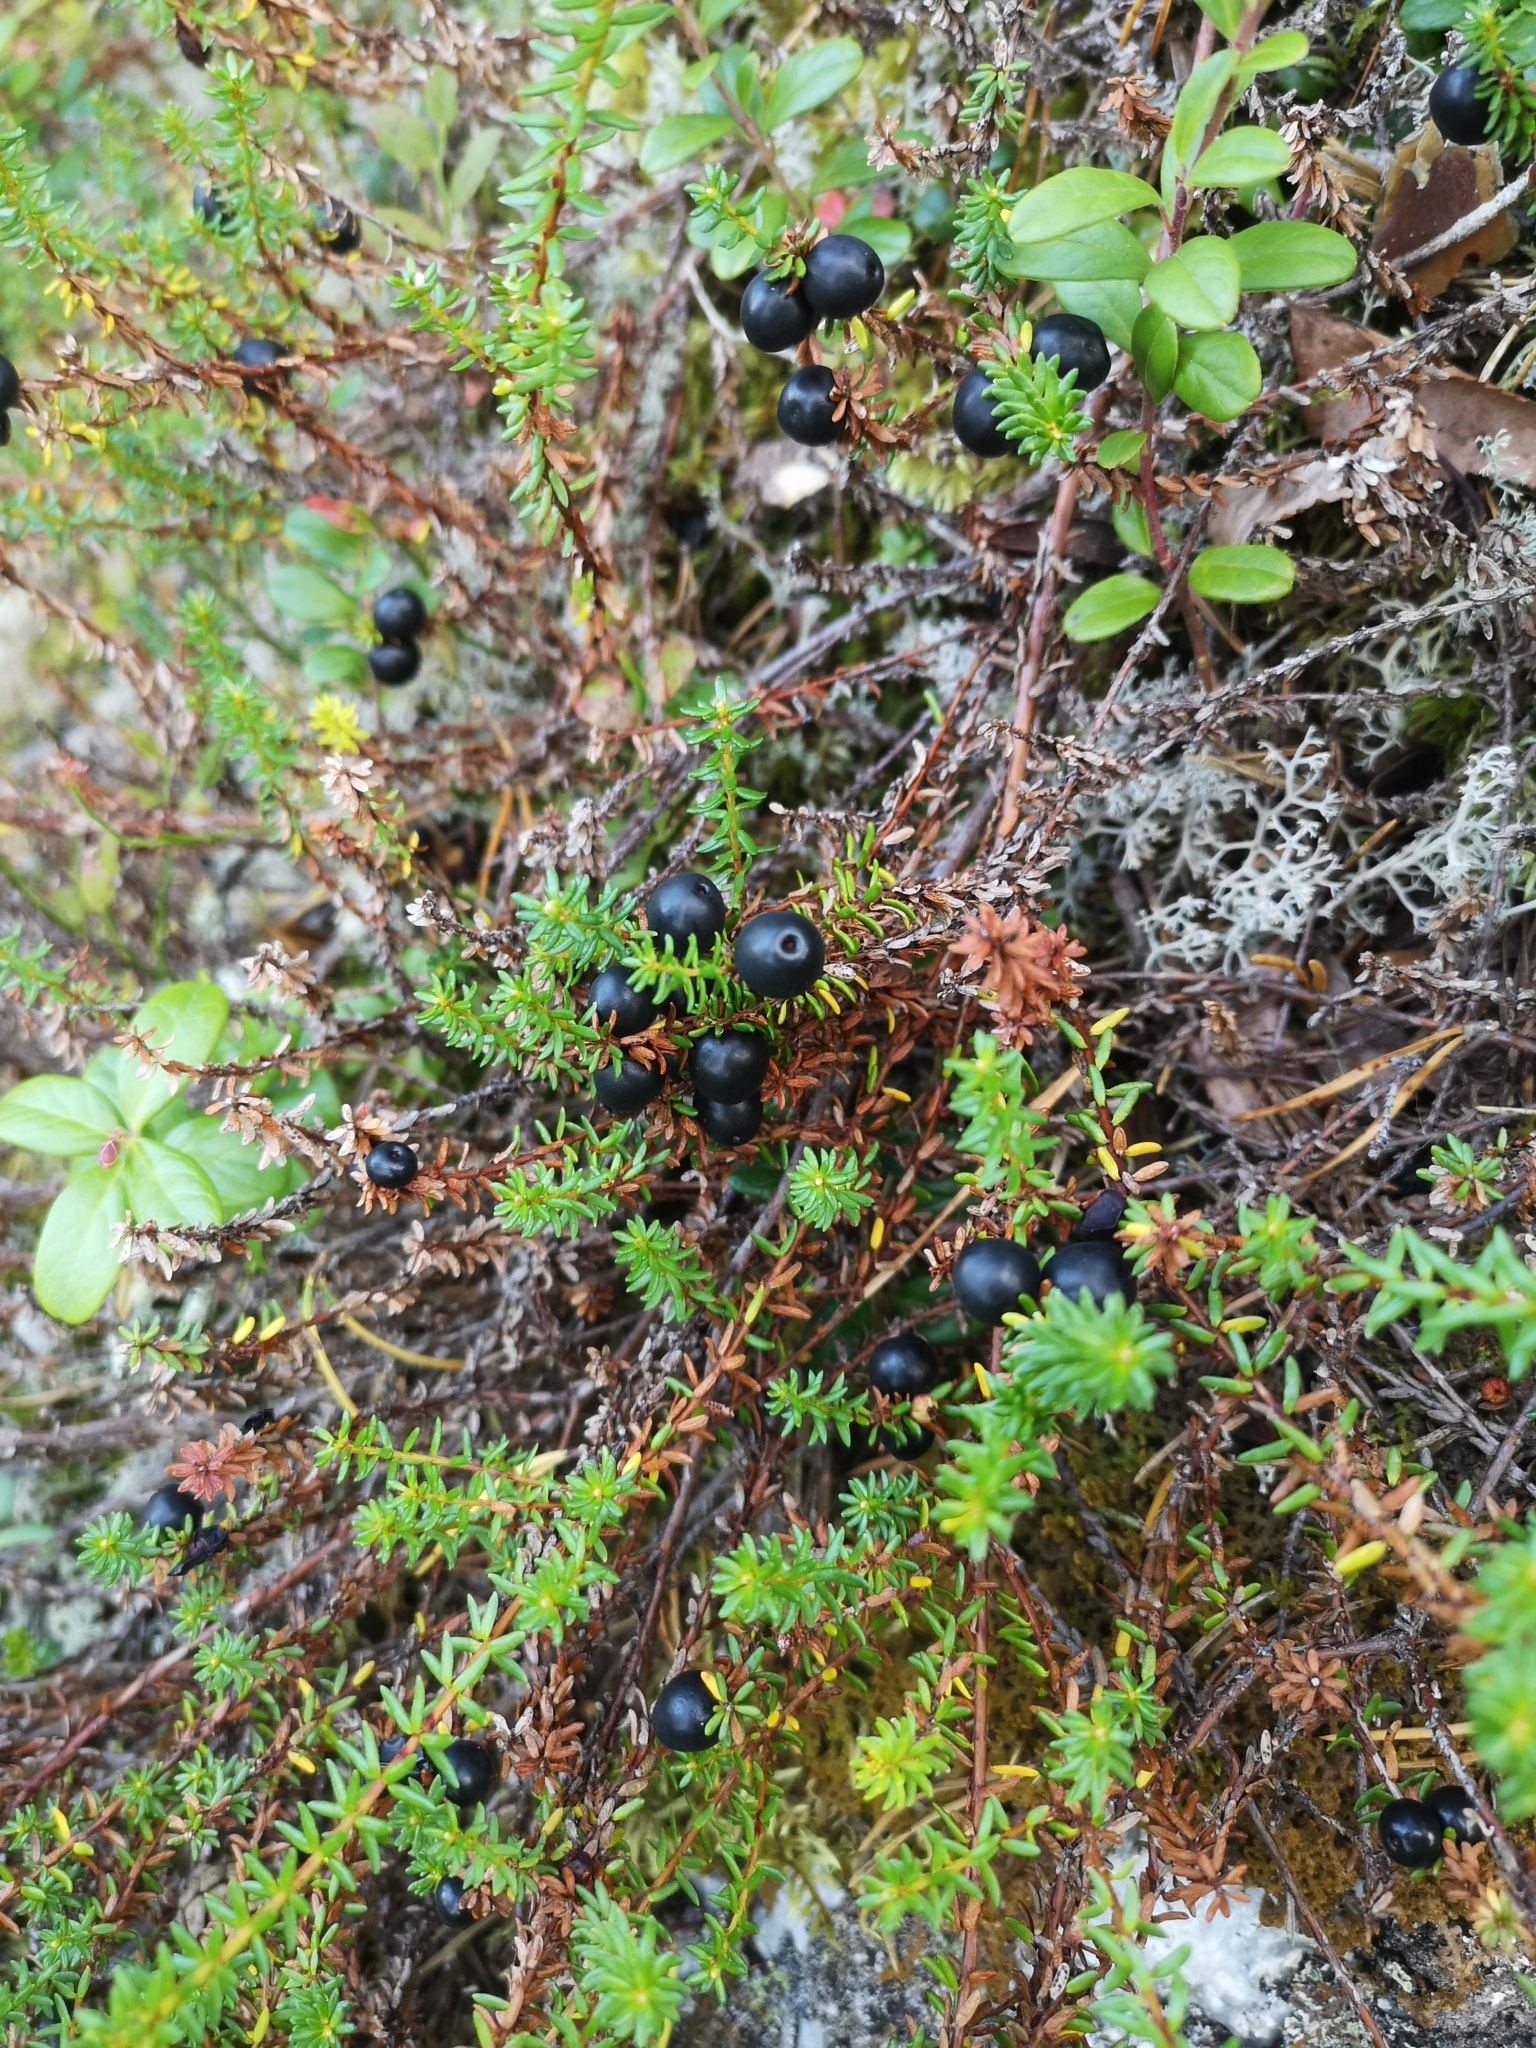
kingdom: Plantae
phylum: Tracheophyta
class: Magnoliopsida
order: Ericales
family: Ericaceae
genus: Empetrum
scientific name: Empetrum nigrum
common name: Black crowberry
